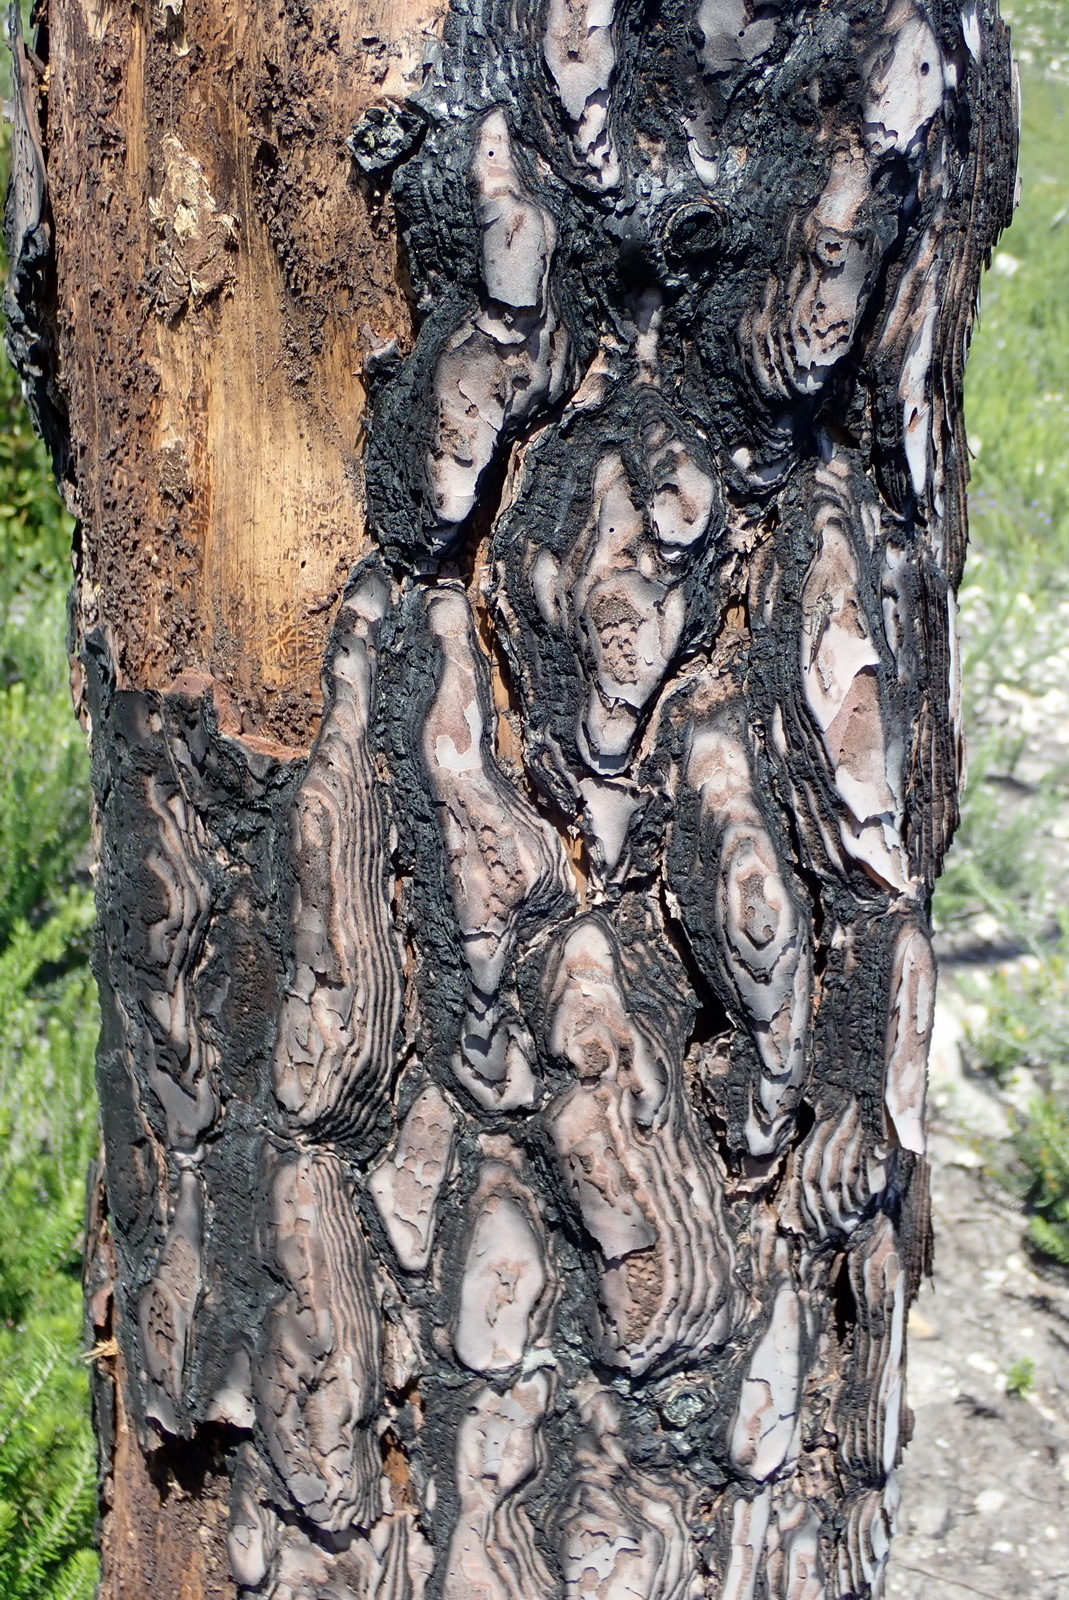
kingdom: Plantae
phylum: Tracheophyta
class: Pinopsida
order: Pinales
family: Pinaceae
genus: Pinus
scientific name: Pinus pinaster
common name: Maritime pine
